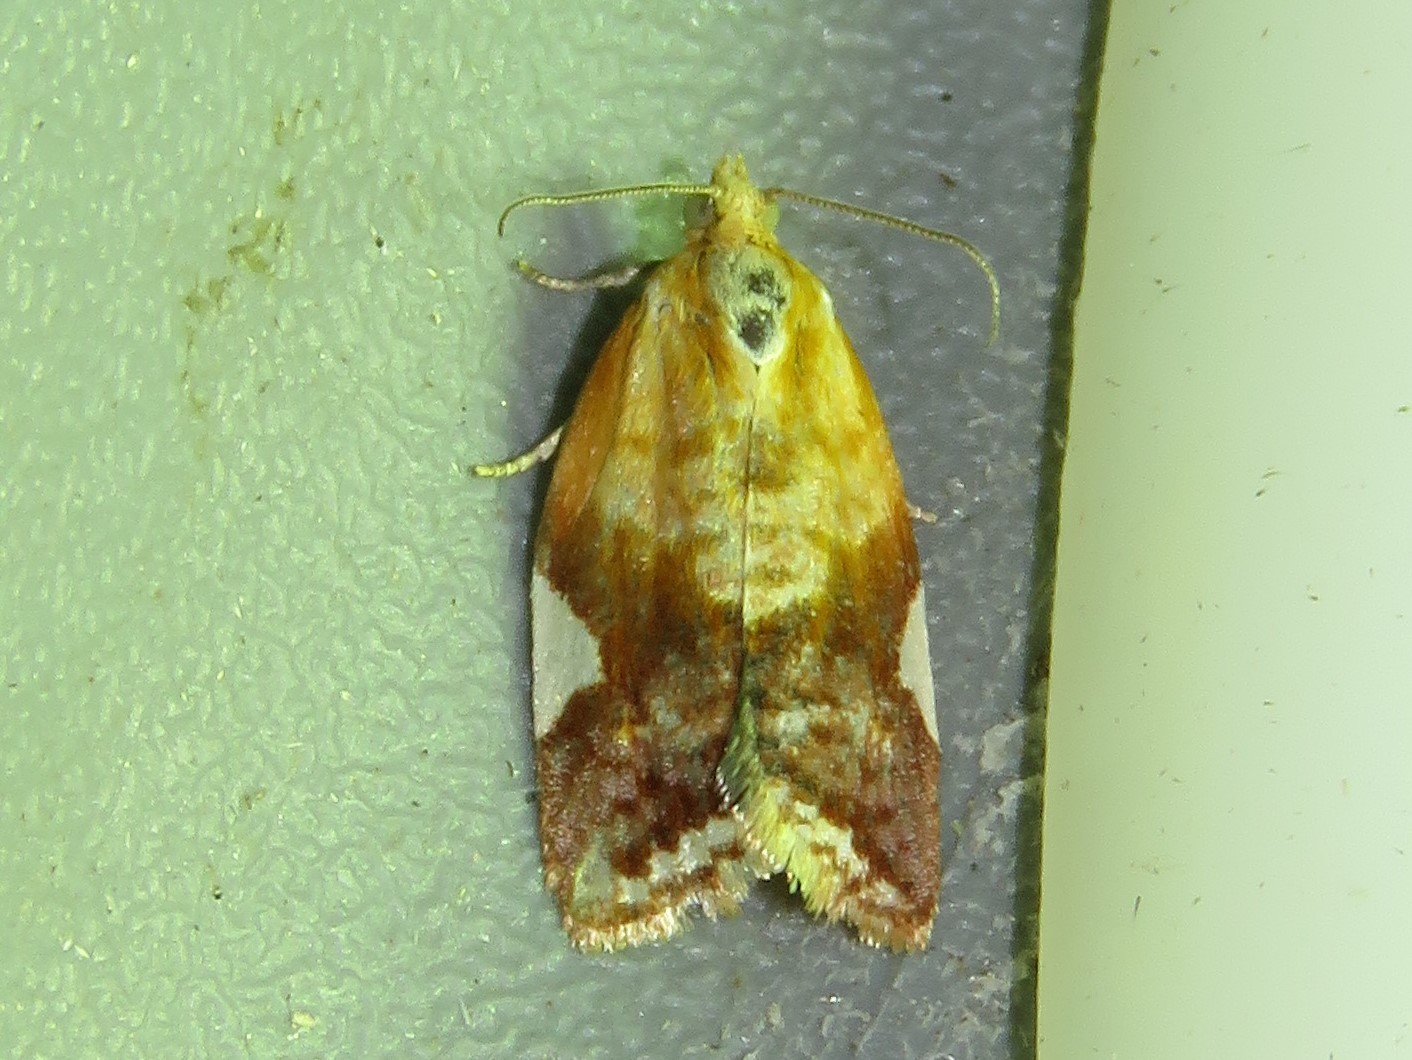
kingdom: Animalia
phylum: Arthropoda
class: Insecta
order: Lepidoptera
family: Tortricidae
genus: Clepsis
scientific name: Clepsis persicana
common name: White triangle tortrix
